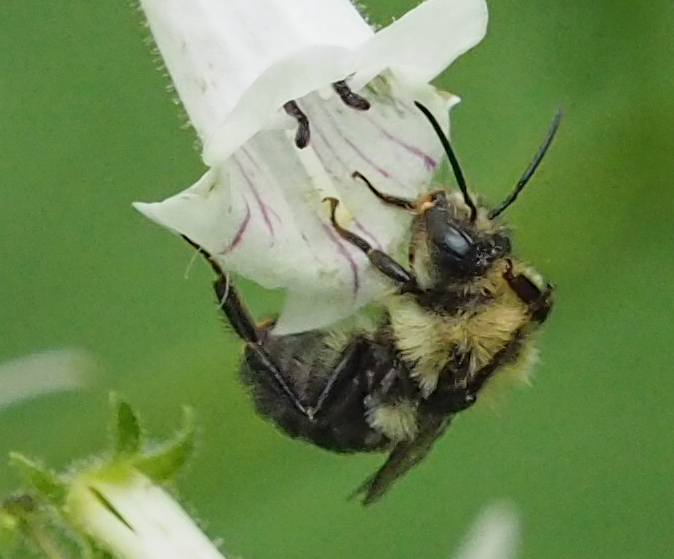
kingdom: Animalia
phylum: Arthropoda
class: Insecta
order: Hymenoptera
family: Apidae
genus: Bombus
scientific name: Bombus bimaculatus
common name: Two-spotted bumble bee
